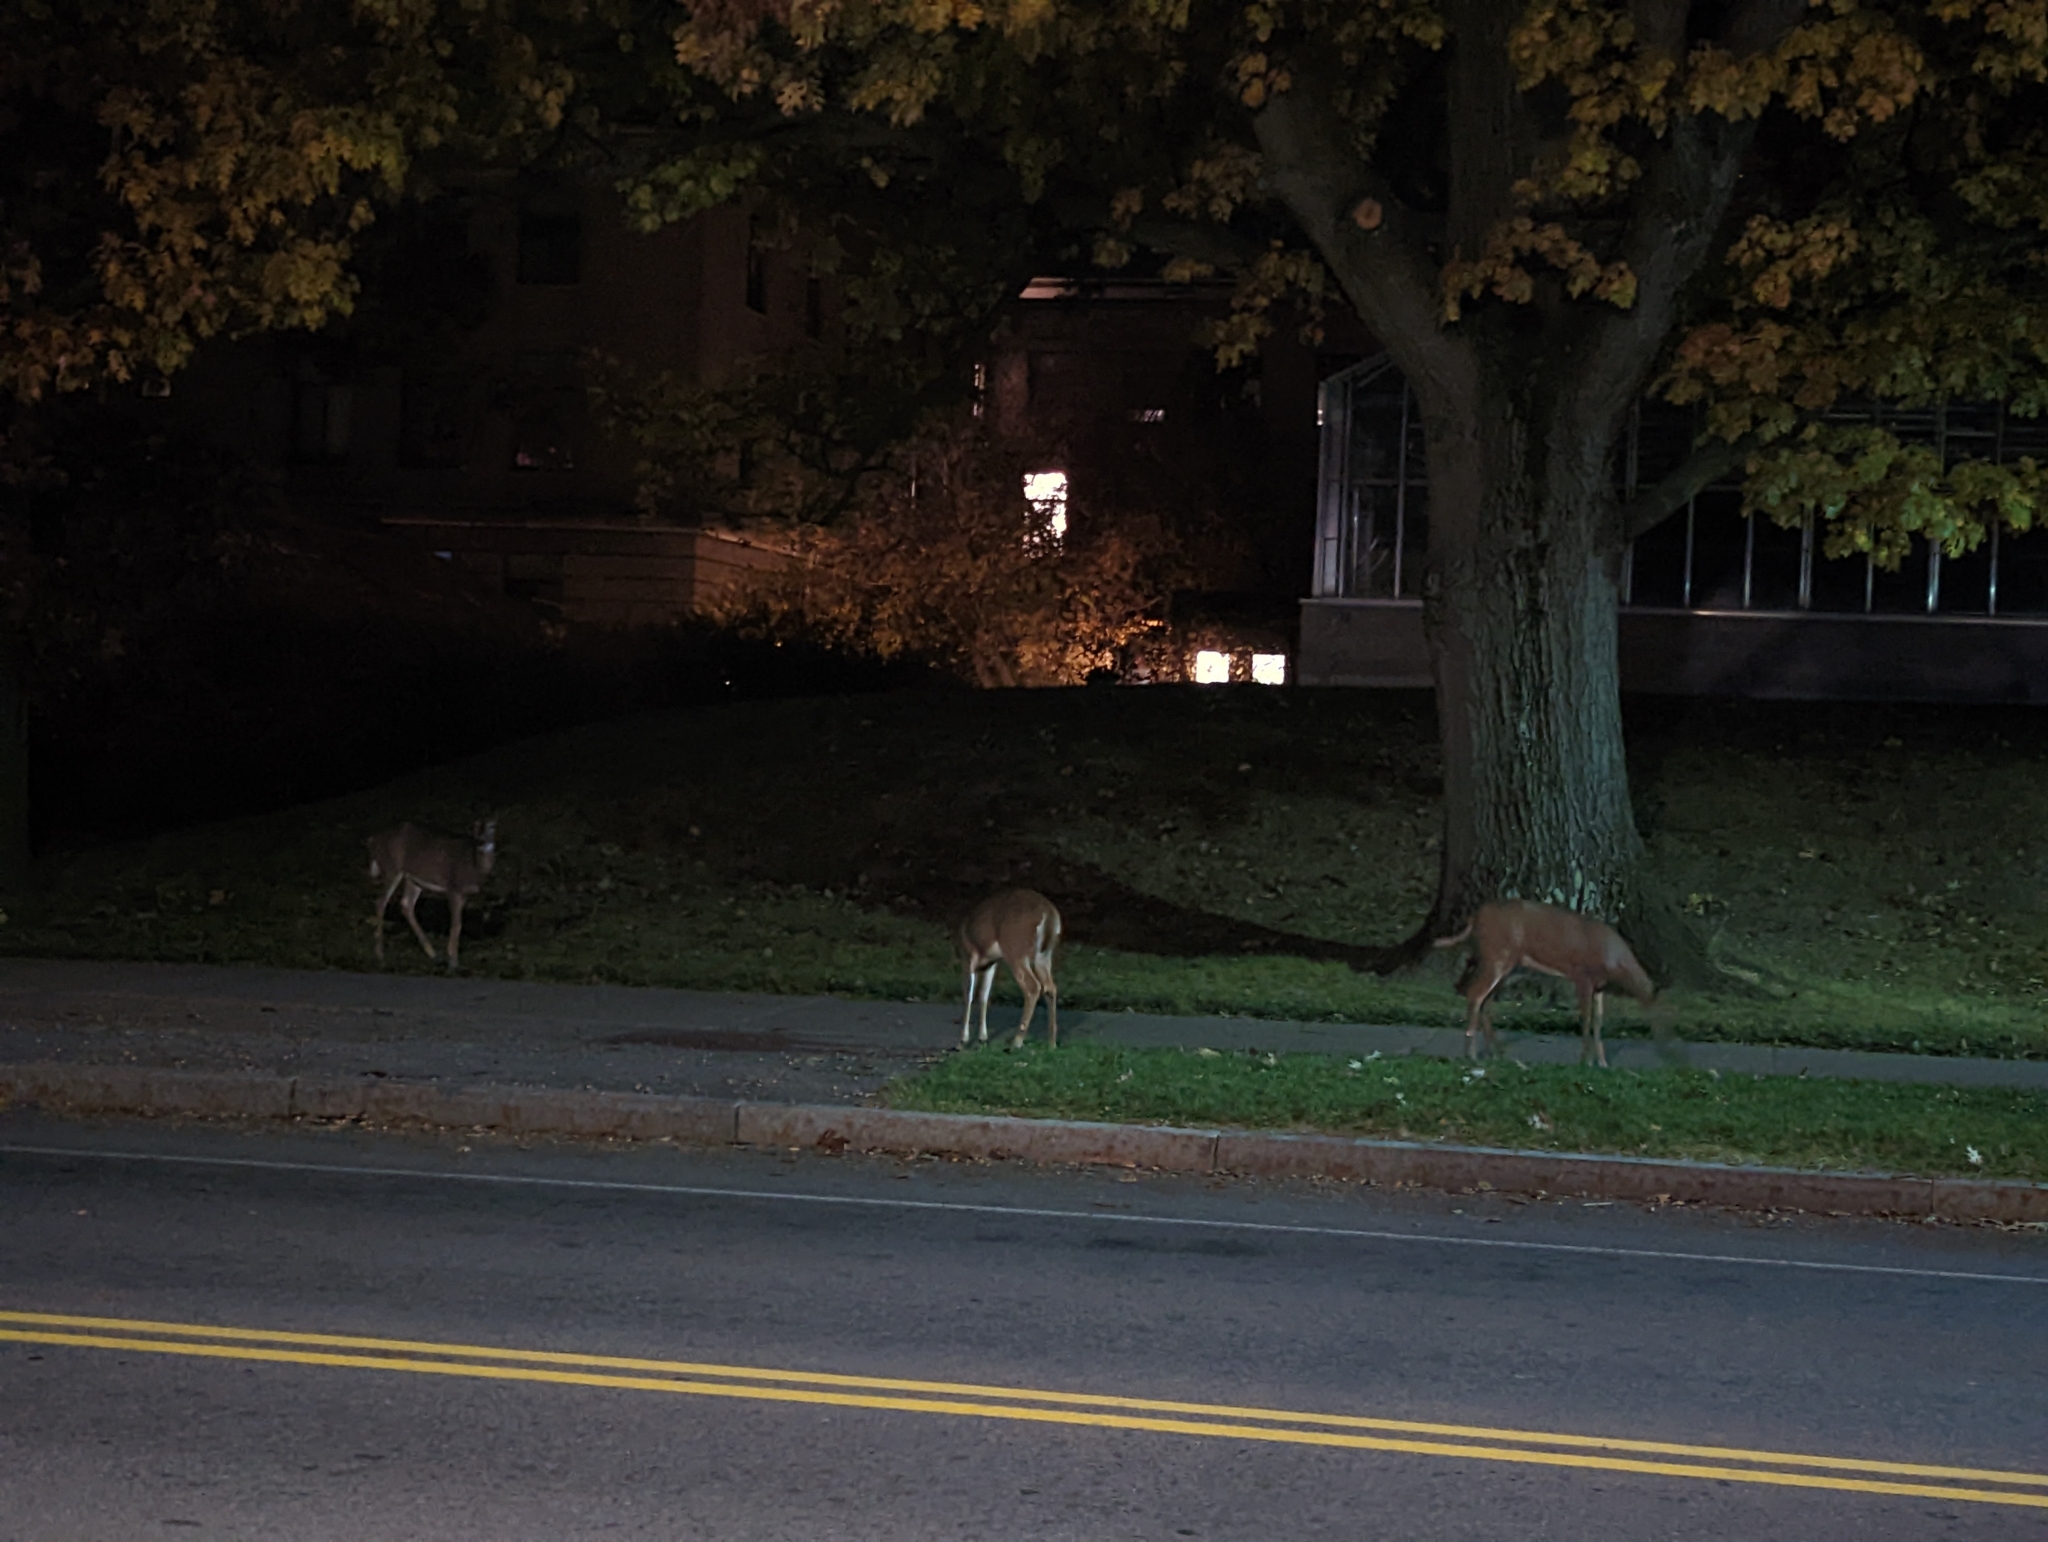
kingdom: Animalia
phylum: Chordata
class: Mammalia
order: Artiodactyla
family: Cervidae
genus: Odocoileus
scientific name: Odocoileus virginianus
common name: White-tailed deer
